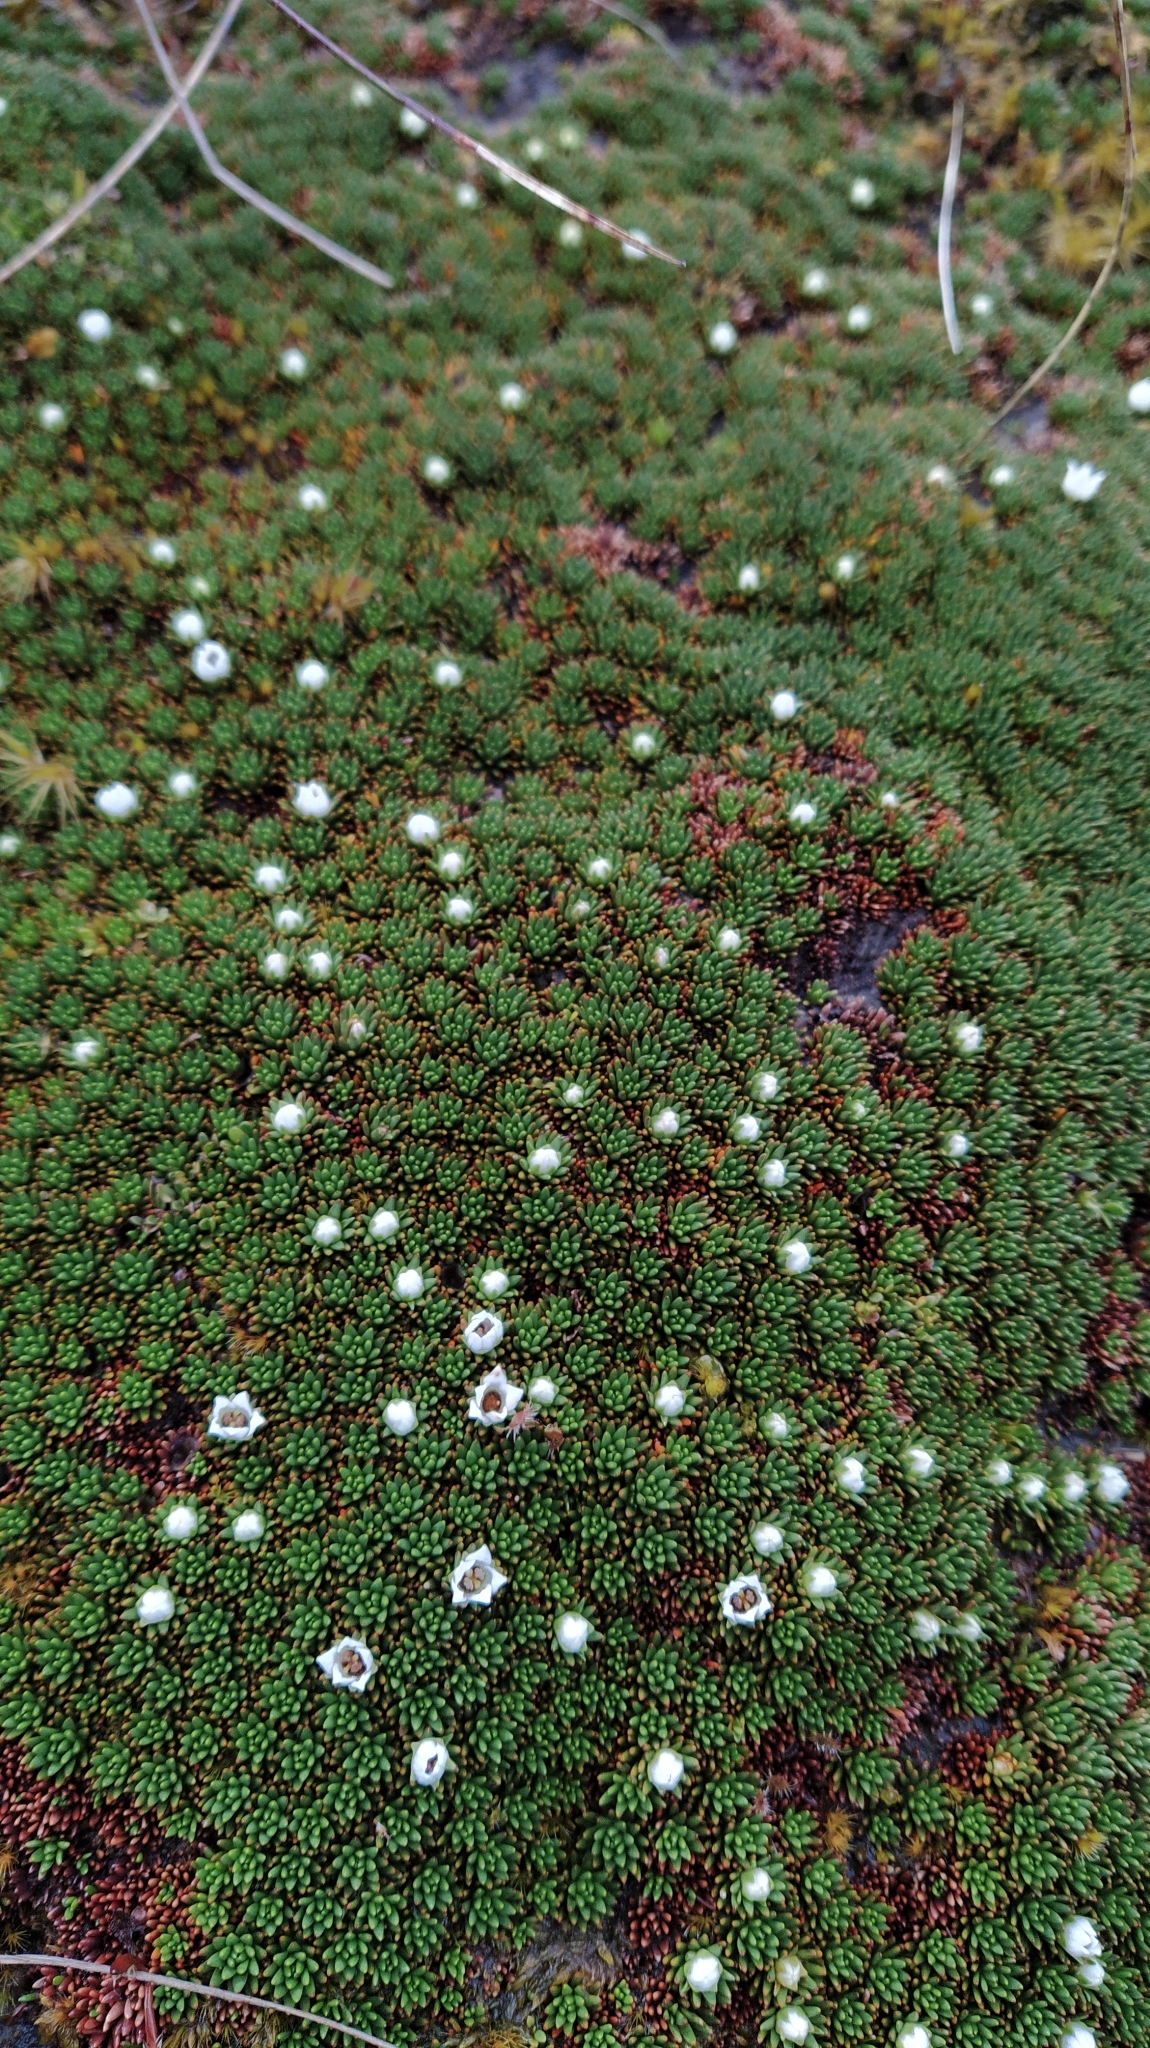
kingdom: Plantae
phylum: Tracheophyta
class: Magnoliopsida
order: Asterales
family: Stylidiaceae
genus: Donatia
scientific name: Donatia novae-zelandiae
